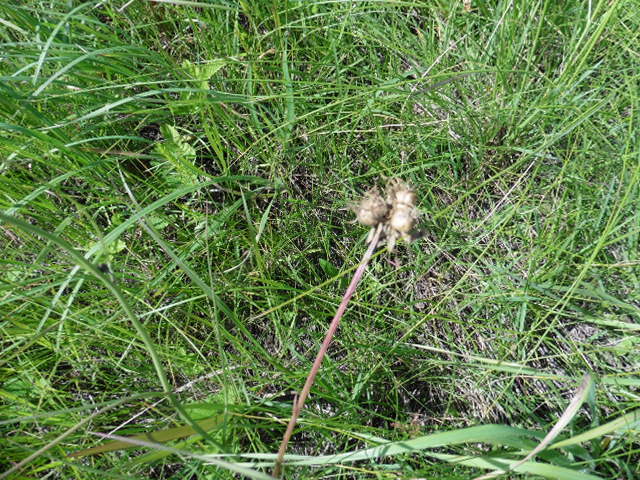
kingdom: Plantae
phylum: Tracheophyta
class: Magnoliopsida
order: Asterales
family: Asteraceae
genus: Scorzonera
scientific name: Scorzonera purpurea
